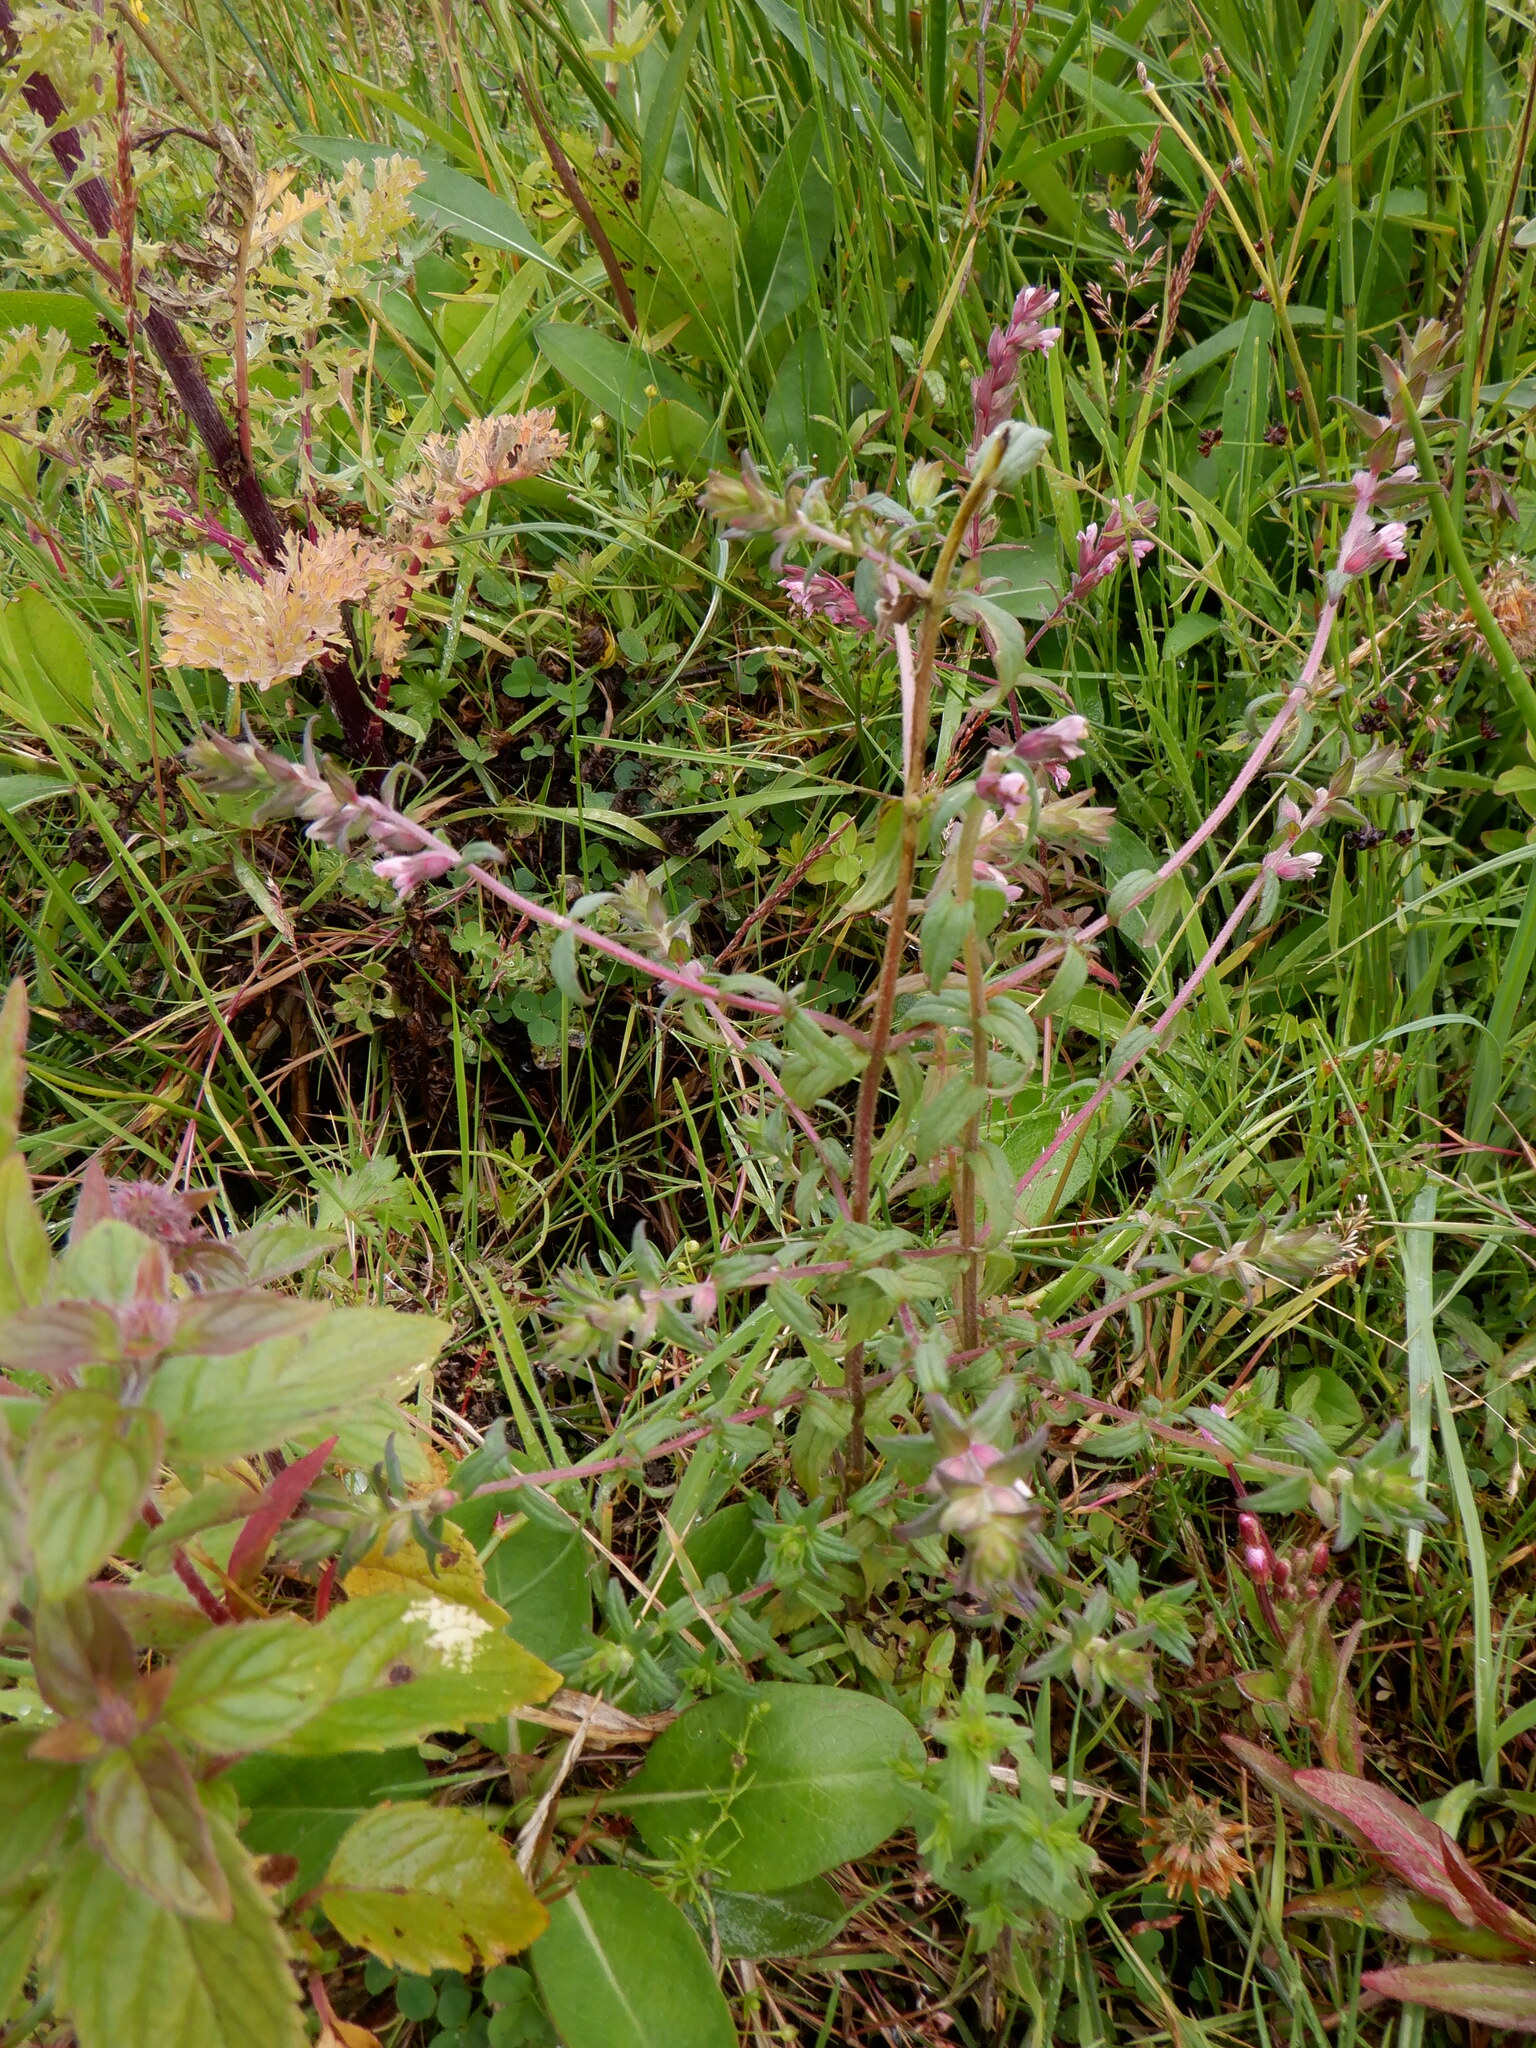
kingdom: Plantae
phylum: Tracheophyta
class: Magnoliopsida
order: Lamiales
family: Orobanchaceae
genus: Odontites
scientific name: Odontites vernus
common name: Red bartsia
